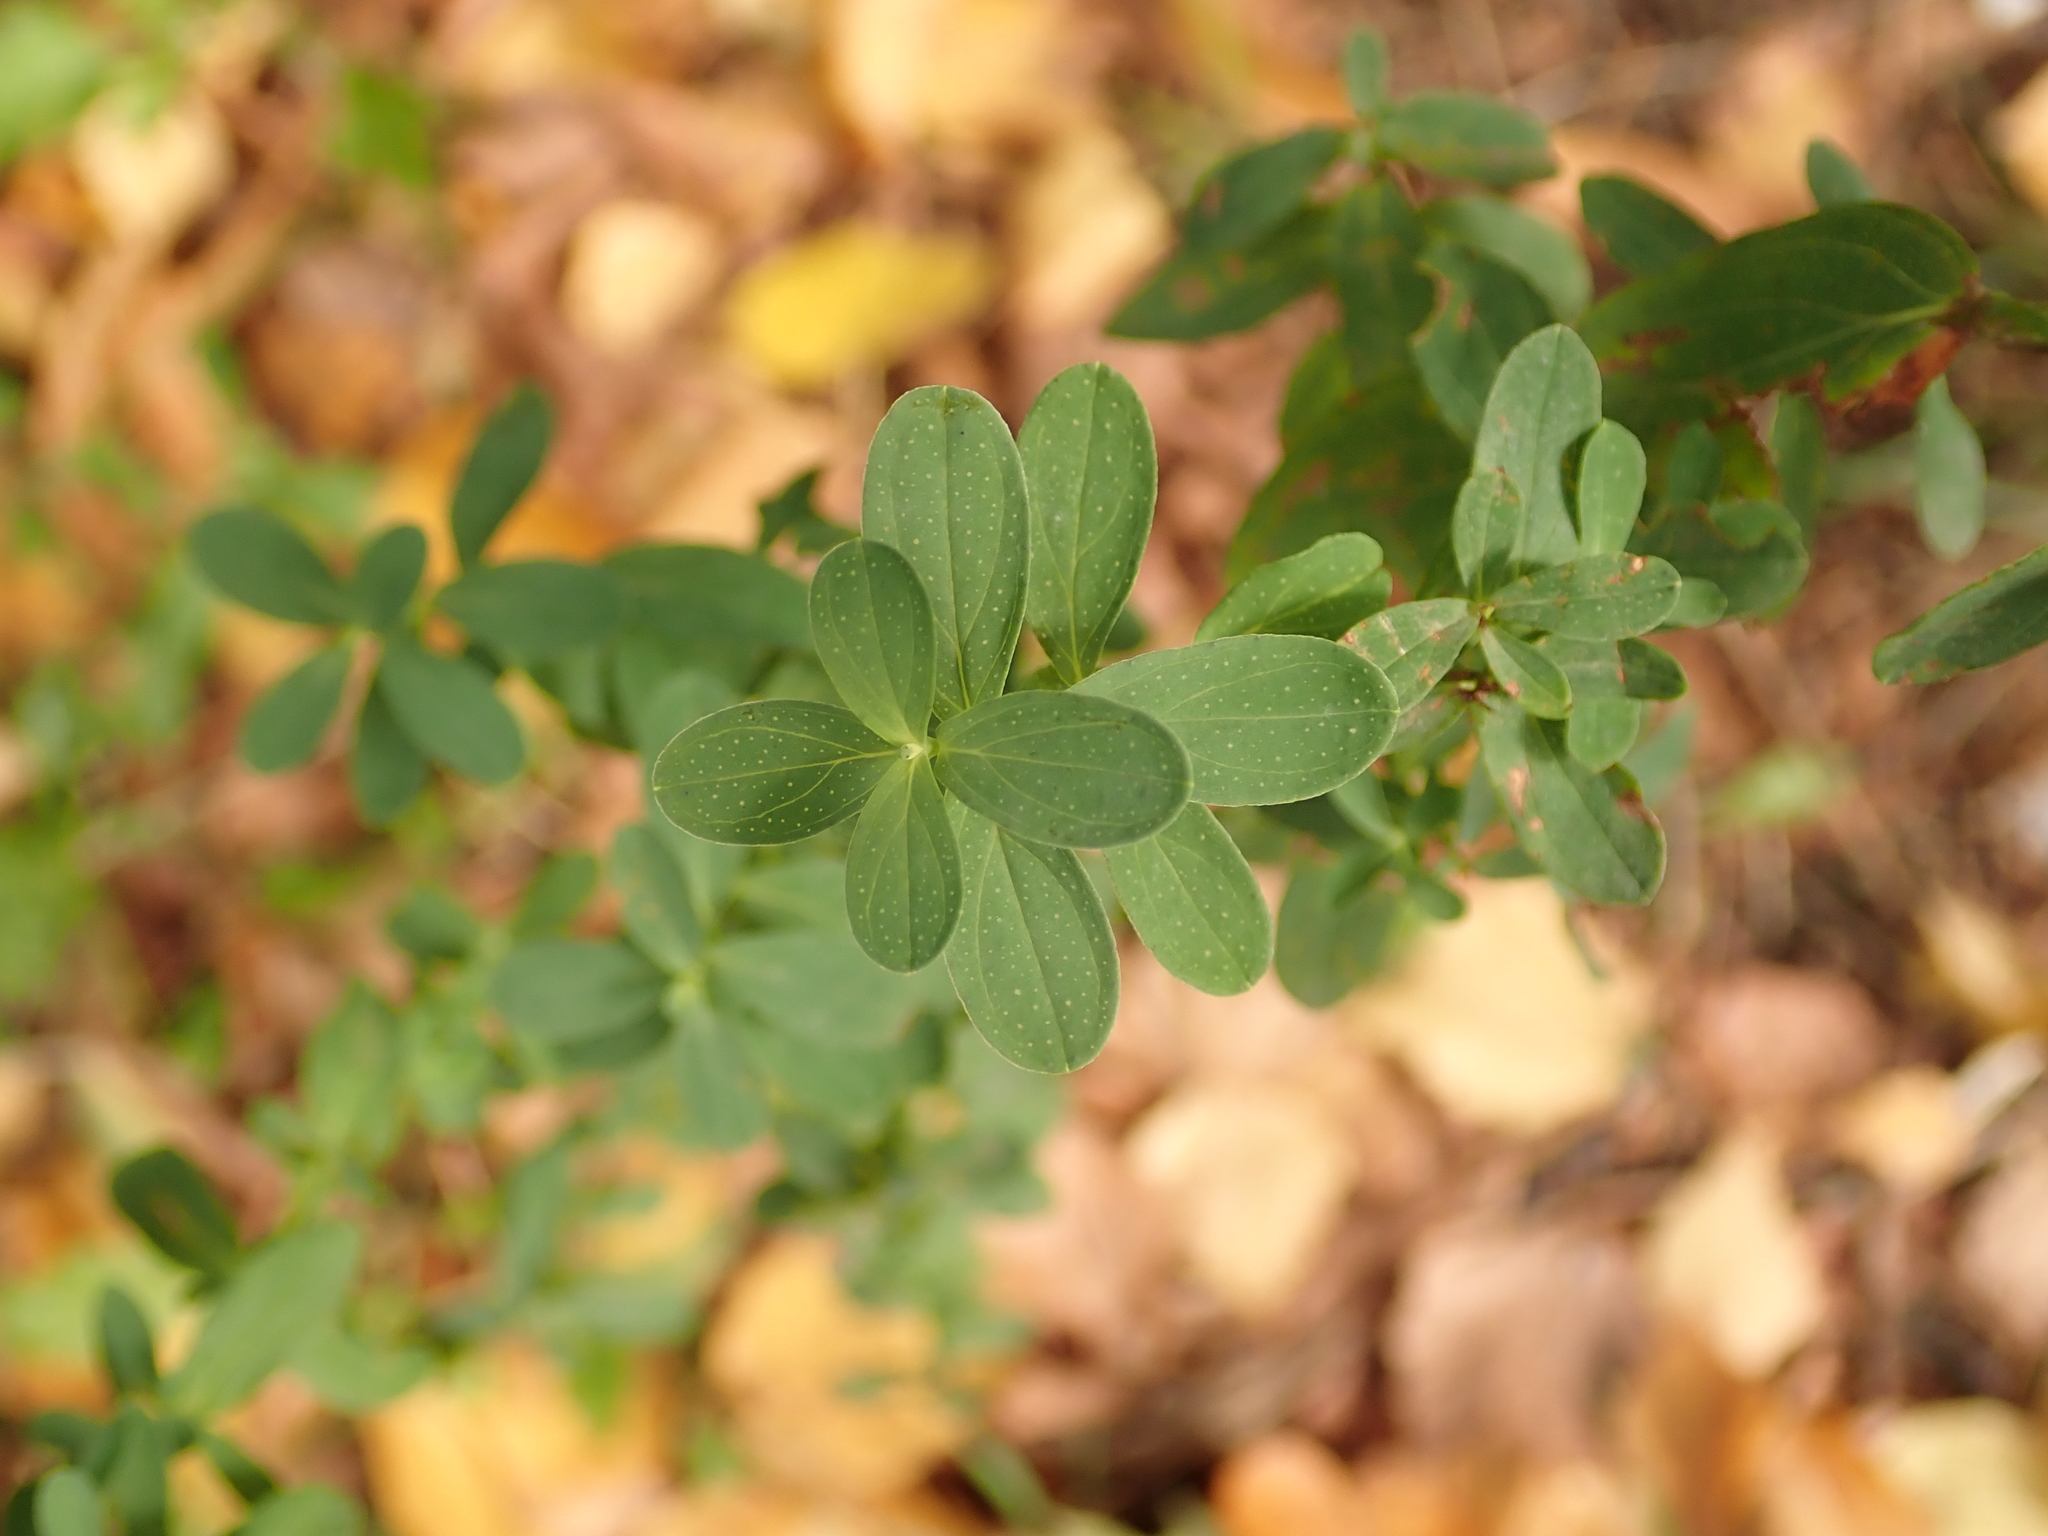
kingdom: Plantae
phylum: Tracheophyta
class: Magnoliopsida
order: Malpighiales
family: Hypericaceae
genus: Hypericum
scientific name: Hypericum perforatum
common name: Common st. johnswort
